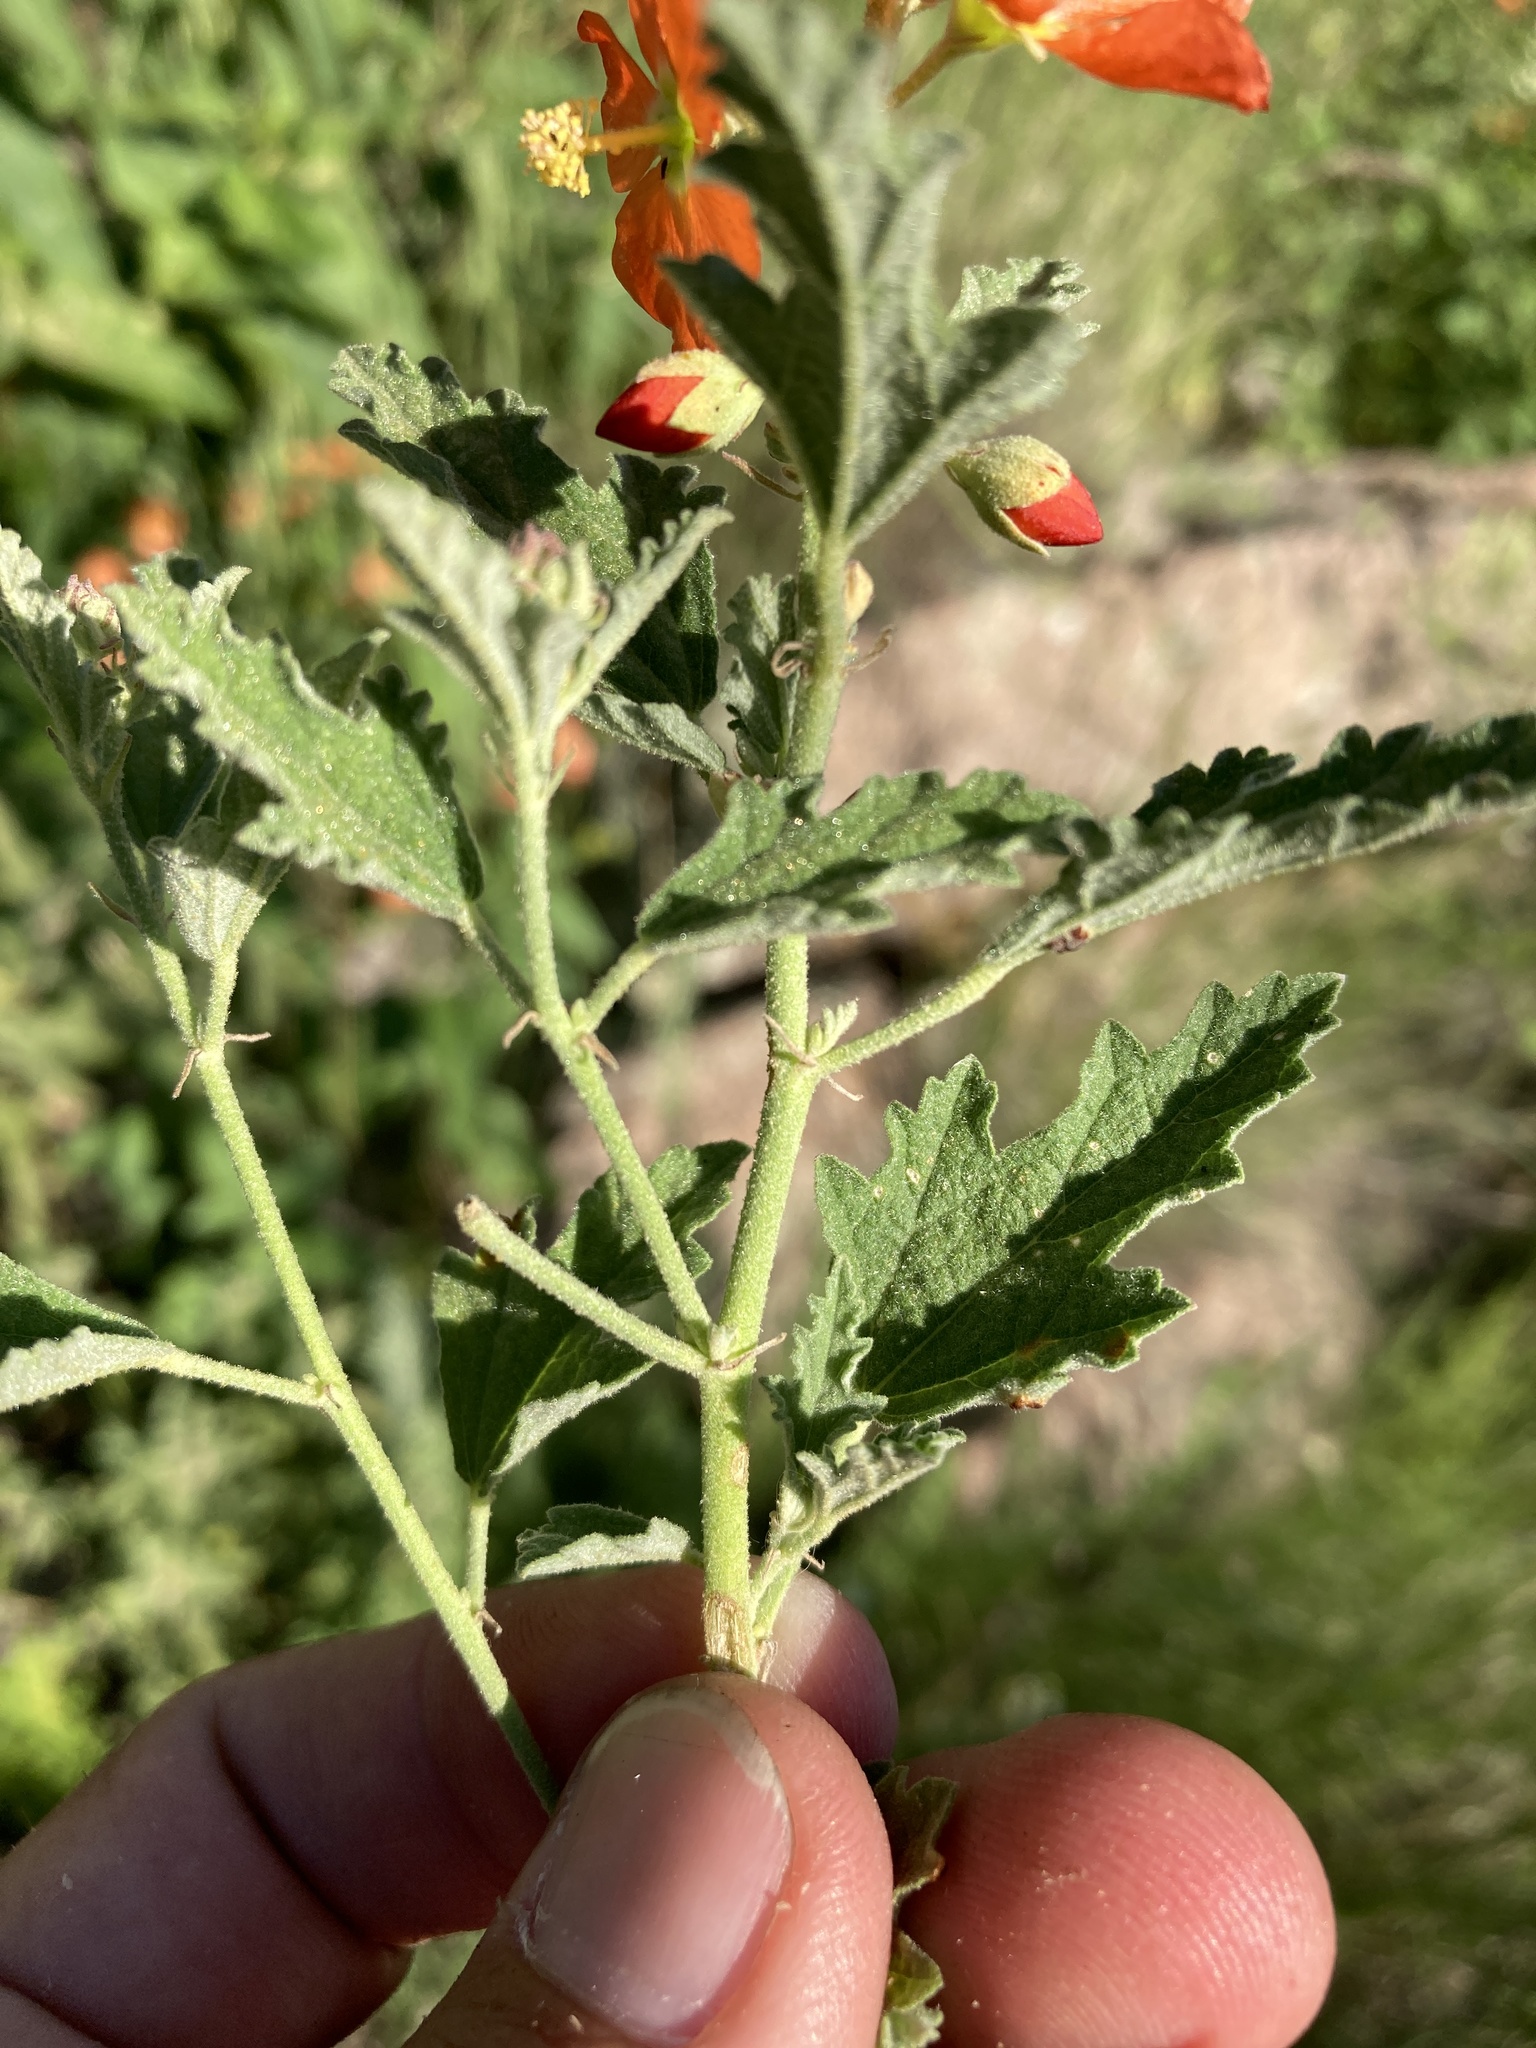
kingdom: Plantae
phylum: Tracheophyta
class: Magnoliopsida
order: Malvales
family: Malvaceae
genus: Sphaeralcea
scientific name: Sphaeralcea fendleri
